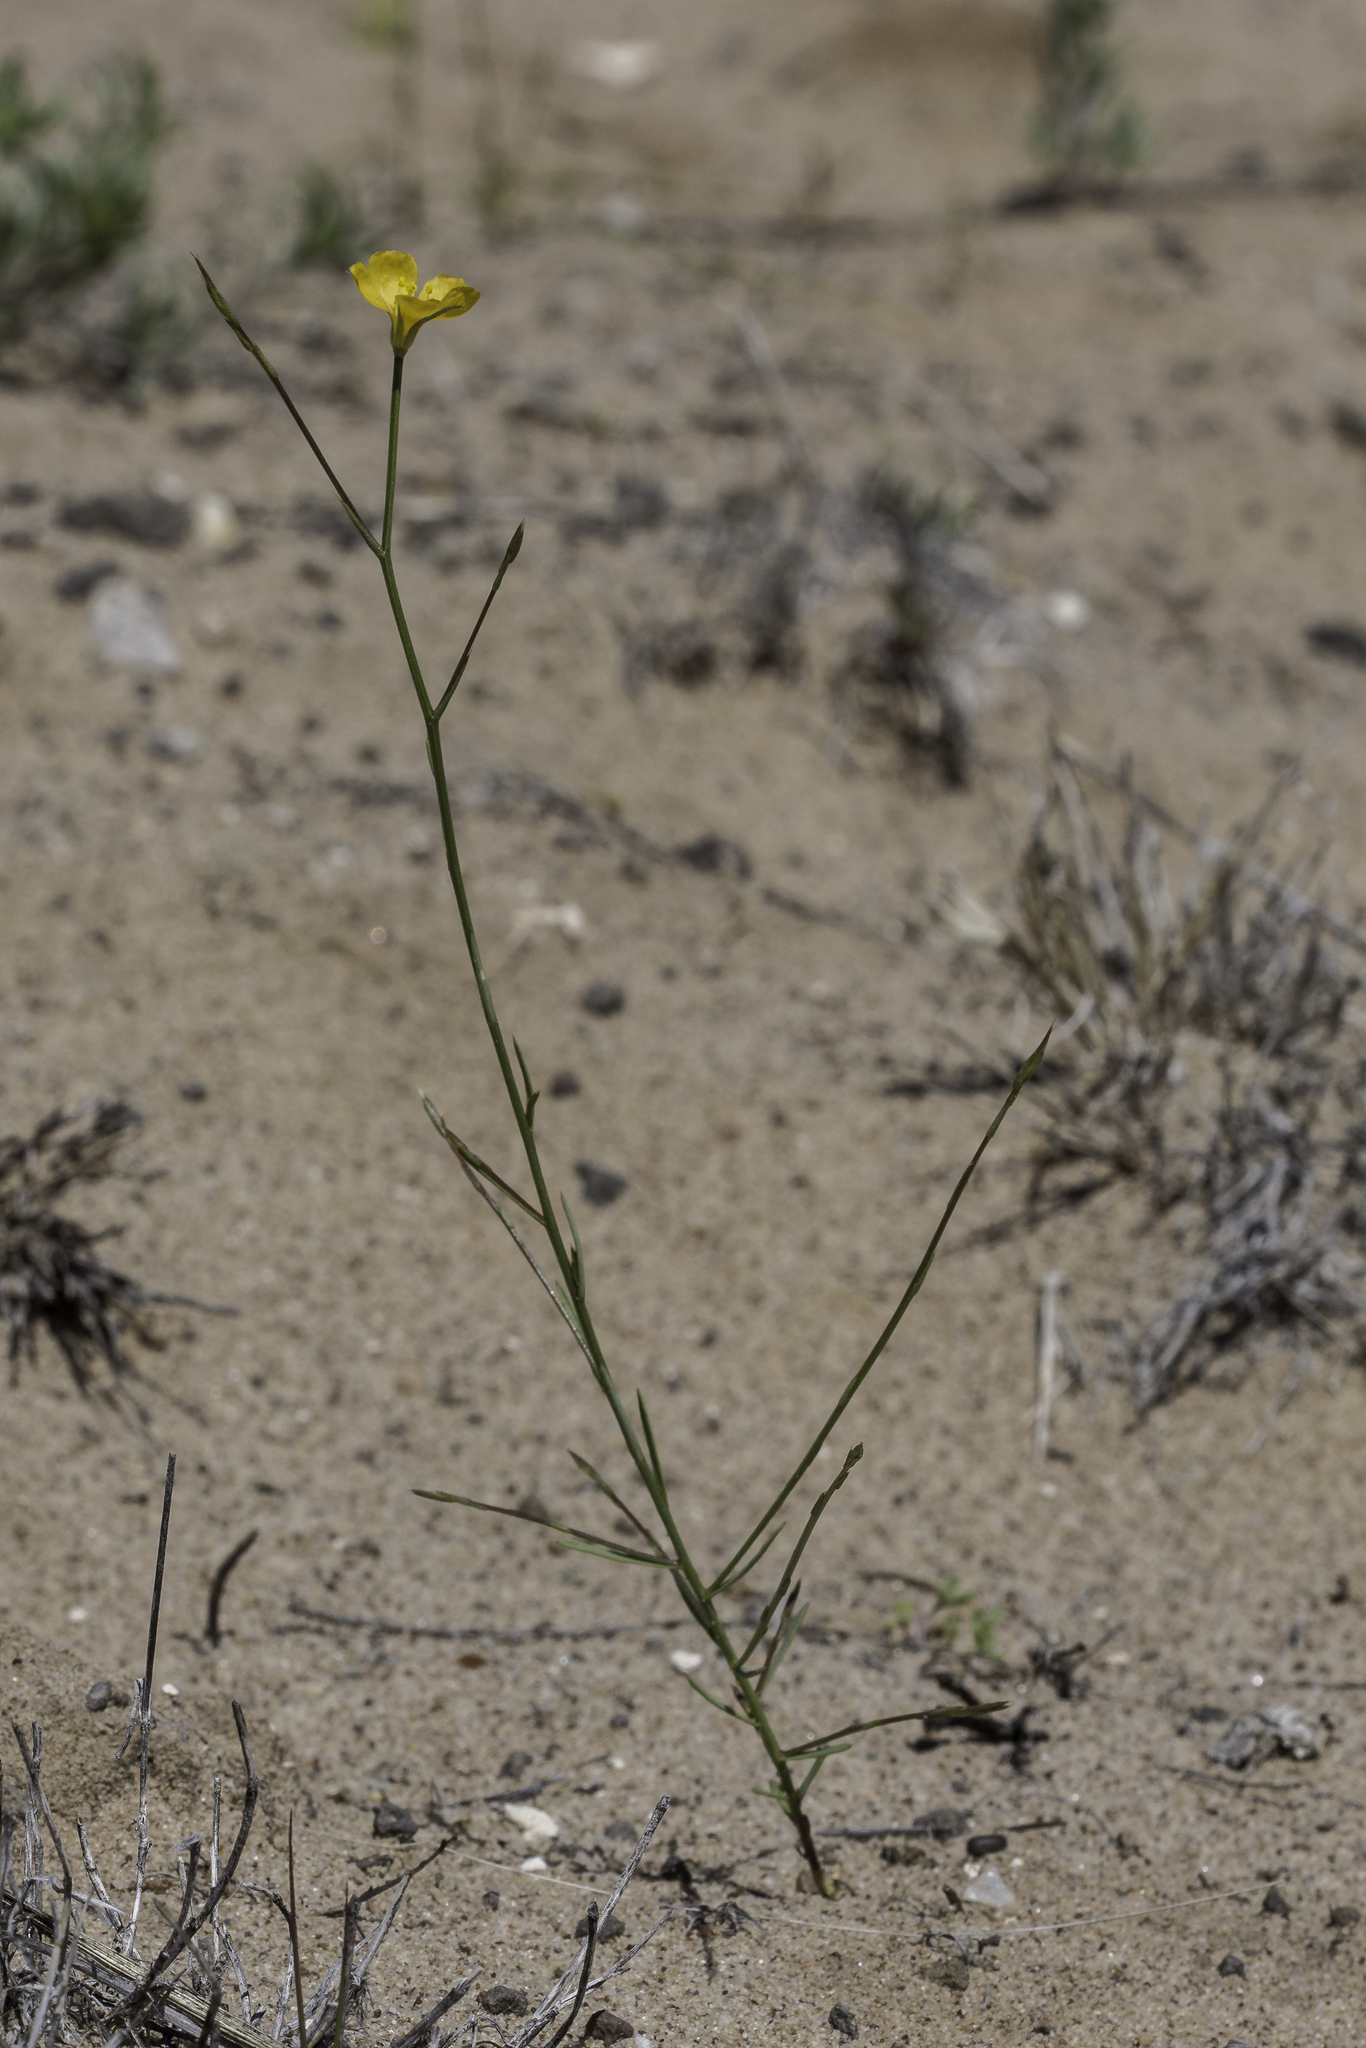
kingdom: Plantae
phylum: Tracheophyta
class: Magnoliopsida
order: Malpighiales
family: Linaceae
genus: Linum
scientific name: Linum aristatum
